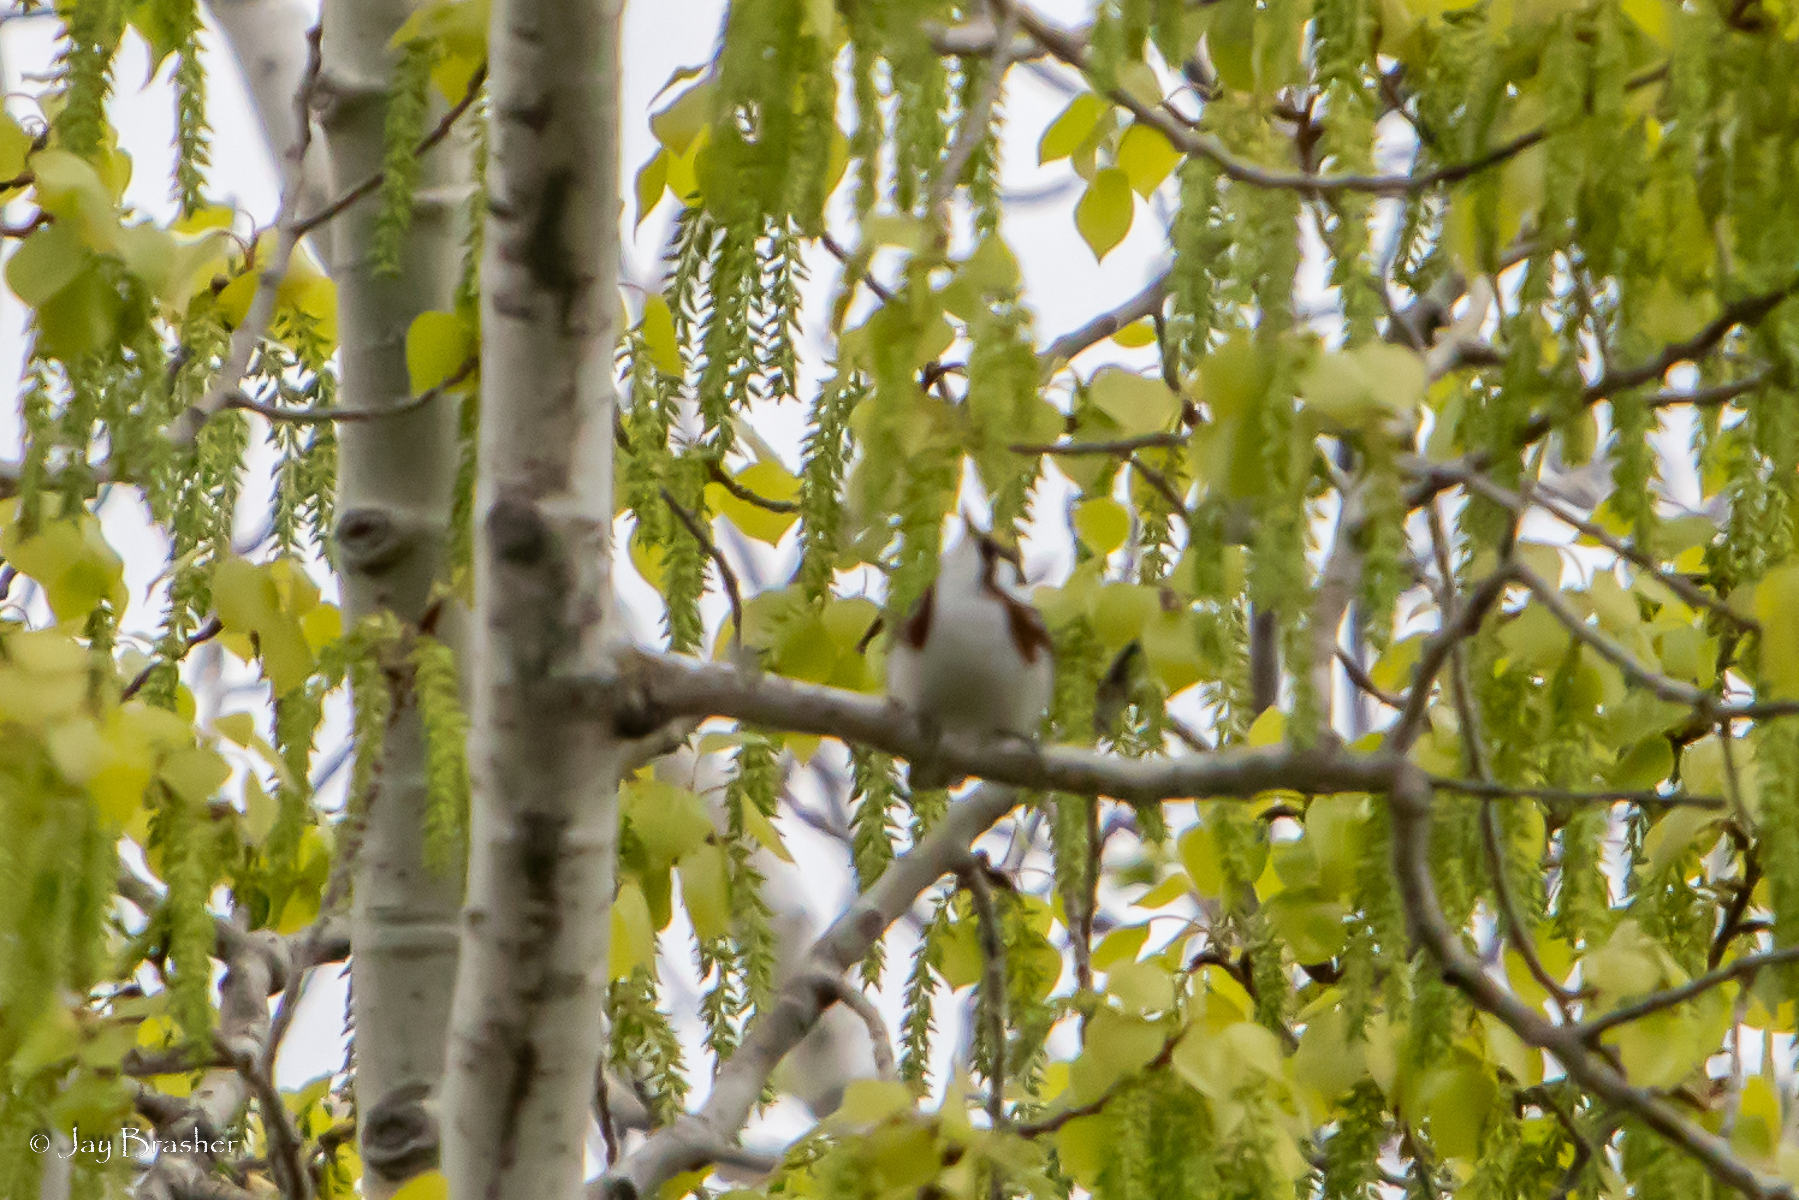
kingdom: Animalia
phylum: Chordata
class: Aves
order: Passeriformes
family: Parulidae
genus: Setophaga
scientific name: Setophaga pensylvanica
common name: Chestnut-sided warbler
